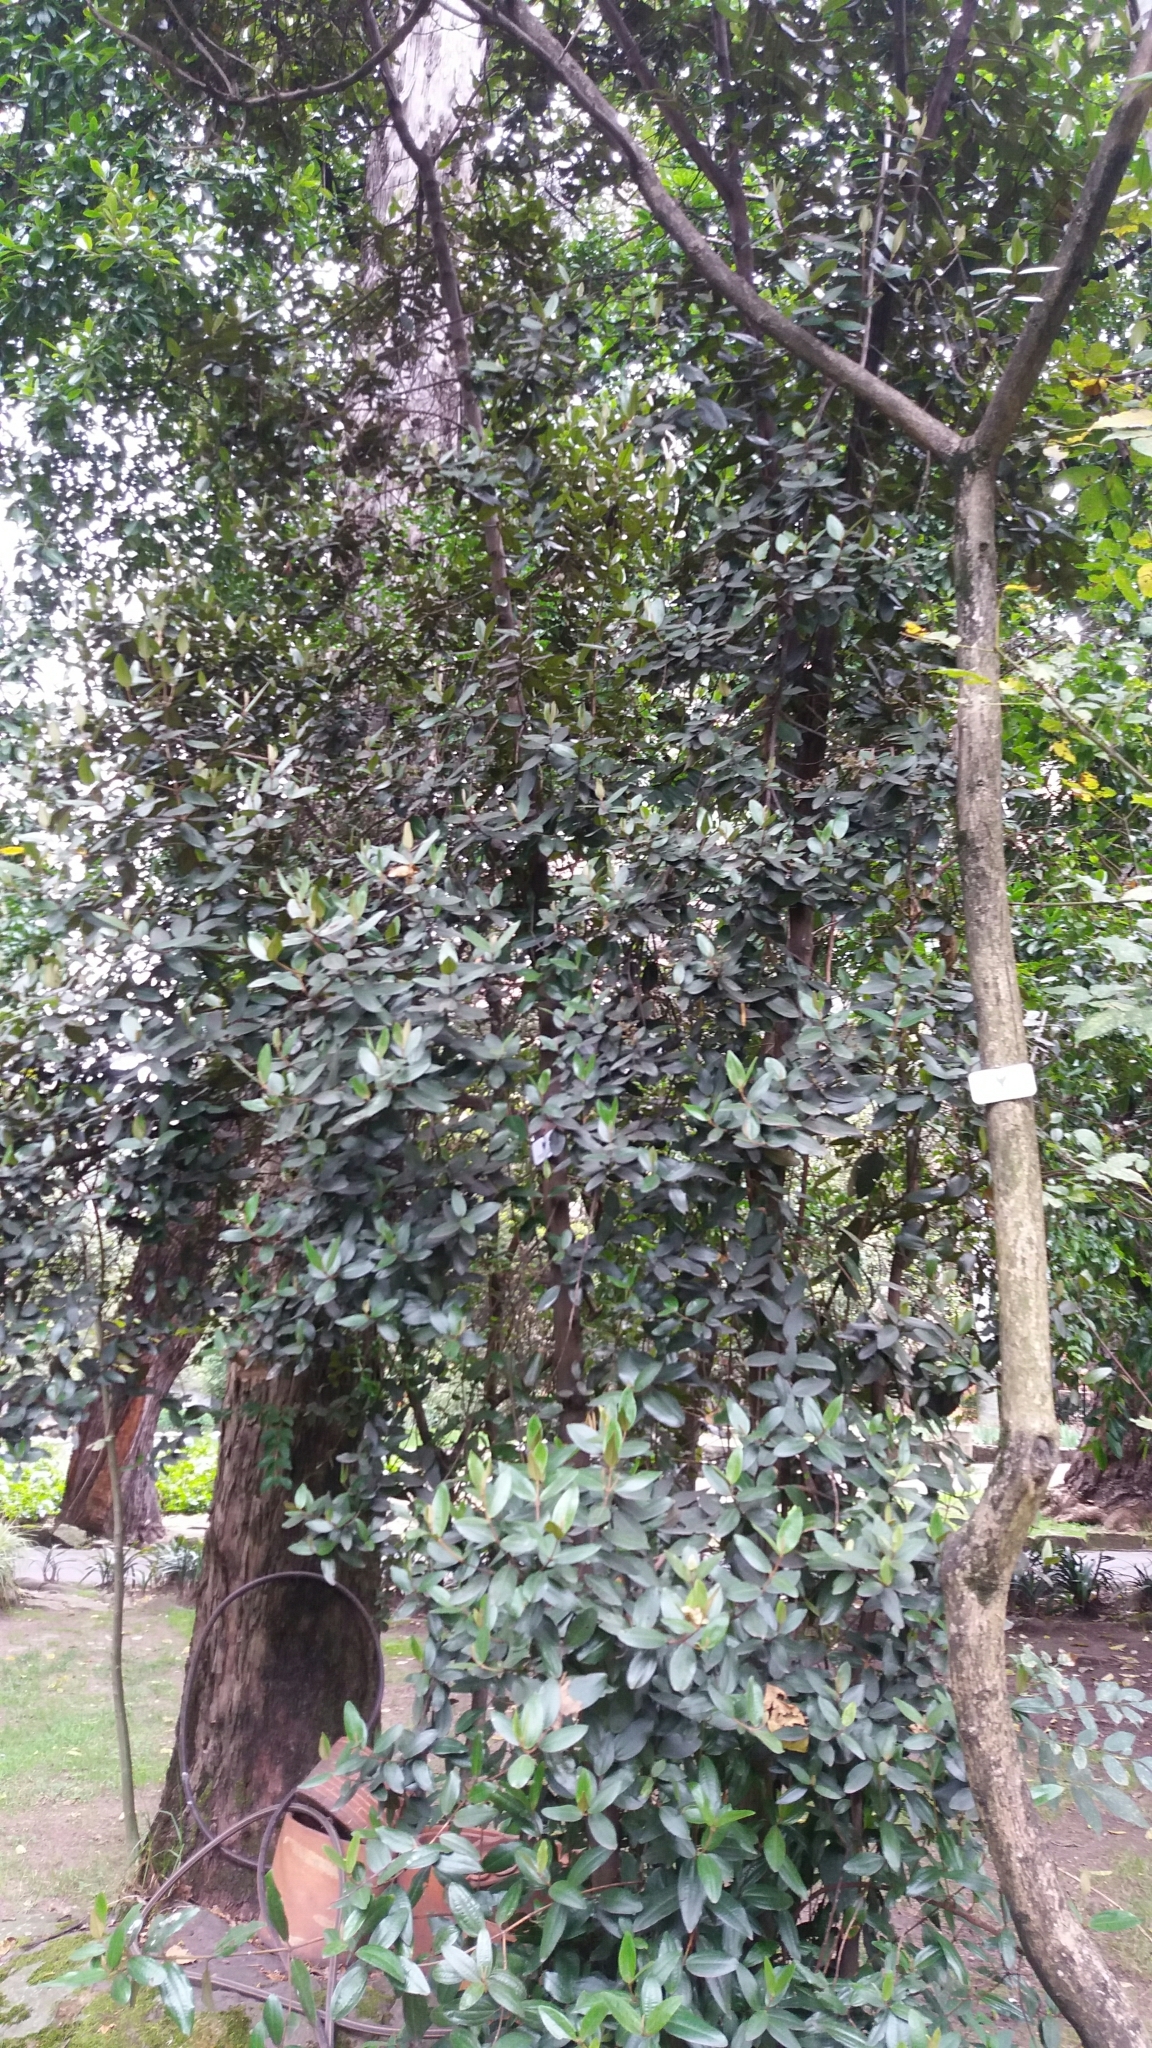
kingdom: Plantae
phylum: Tracheophyta
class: Magnoliopsida
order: Myrtales
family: Melastomataceae
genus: Miconia
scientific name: Miconia squamulosa
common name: Squamulose maya
